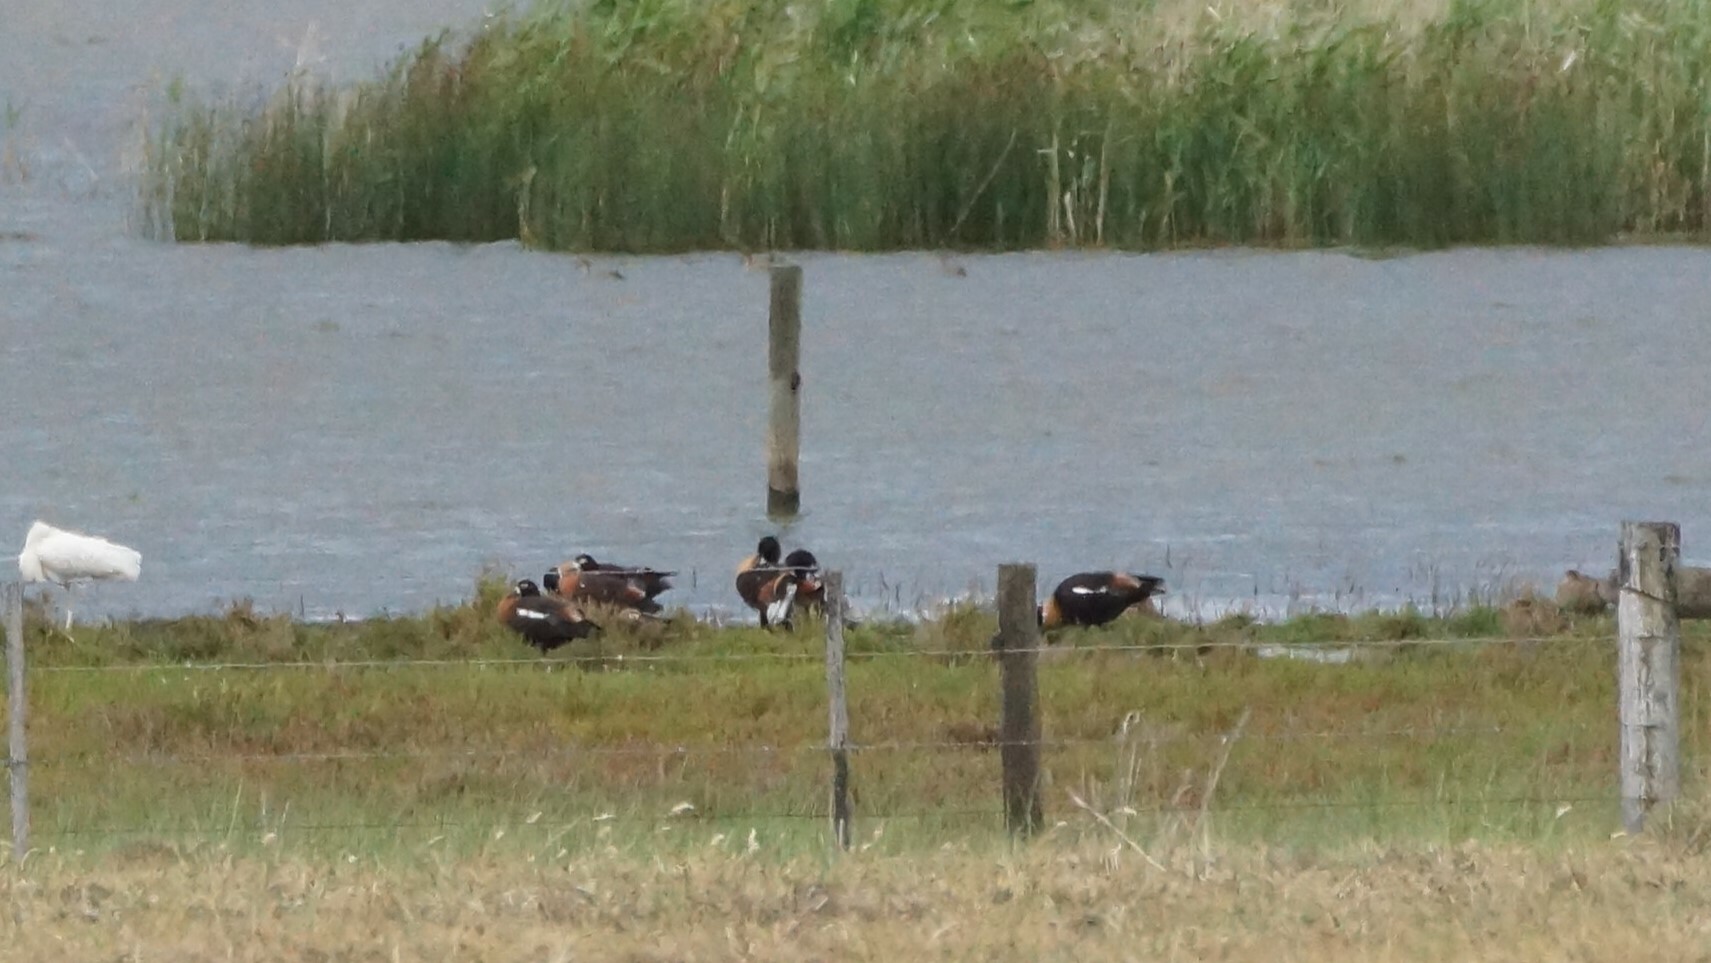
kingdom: Animalia
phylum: Chordata
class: Aves
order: Anseriformes
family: Anatidae
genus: Tadorna
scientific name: Tadorna tadornoides
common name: Australian shelduck
